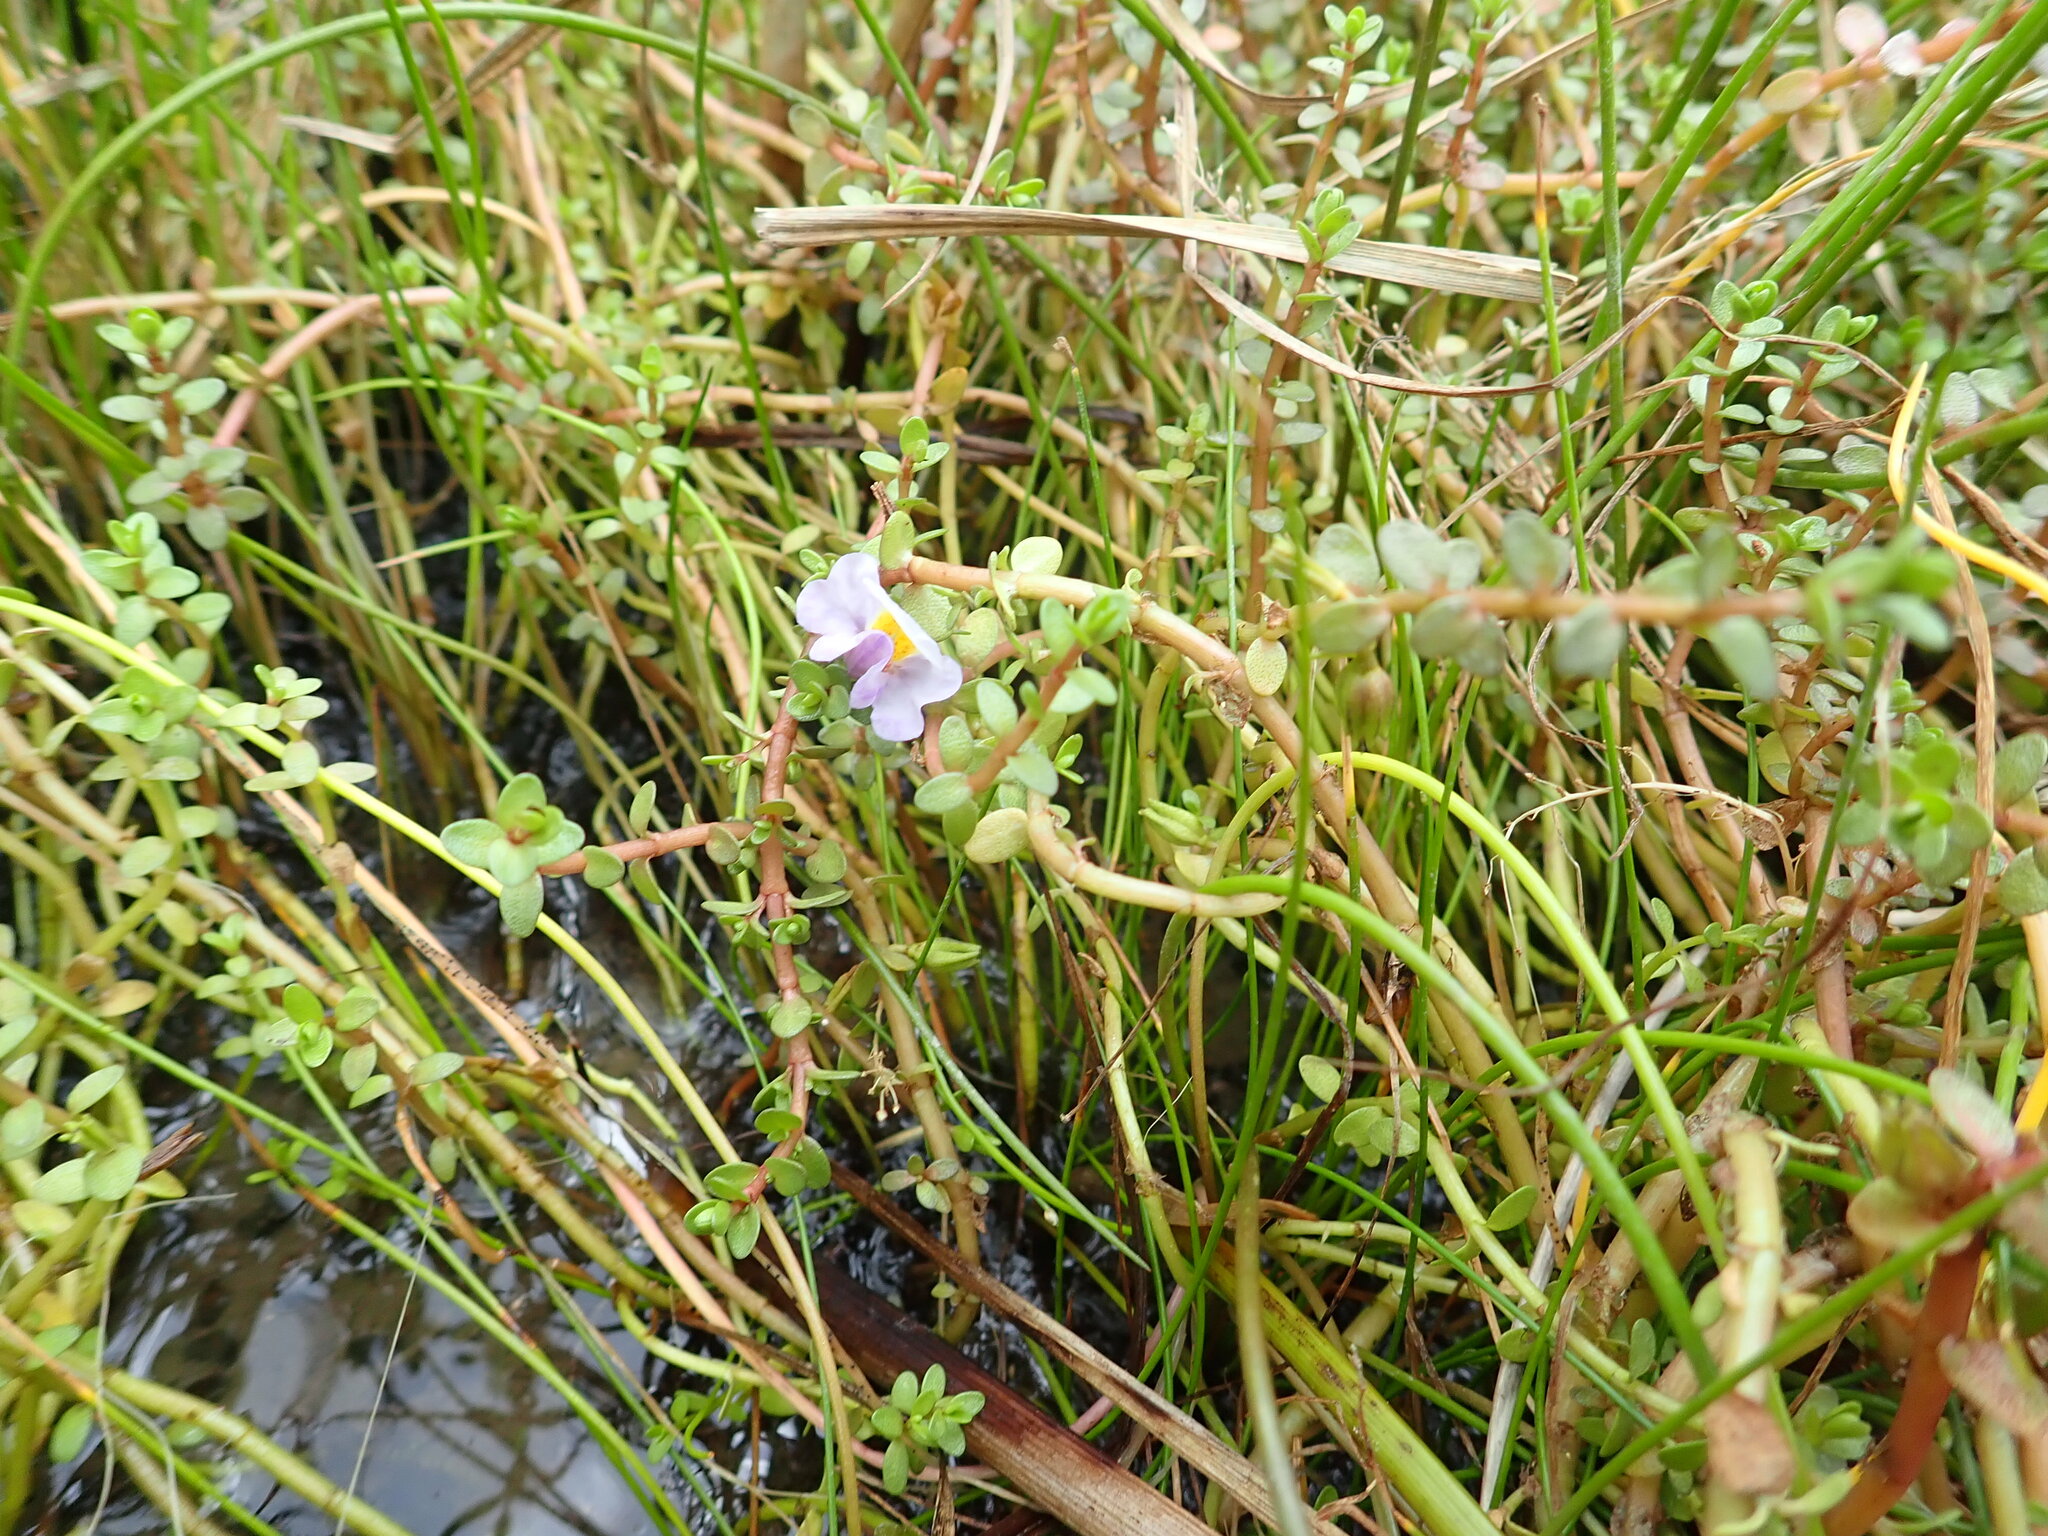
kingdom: Plantae
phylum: Tracheophyta
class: Magnoliopsida
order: Lamiales
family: Phrymaceae
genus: Thyridia
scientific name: Thyridia repens
